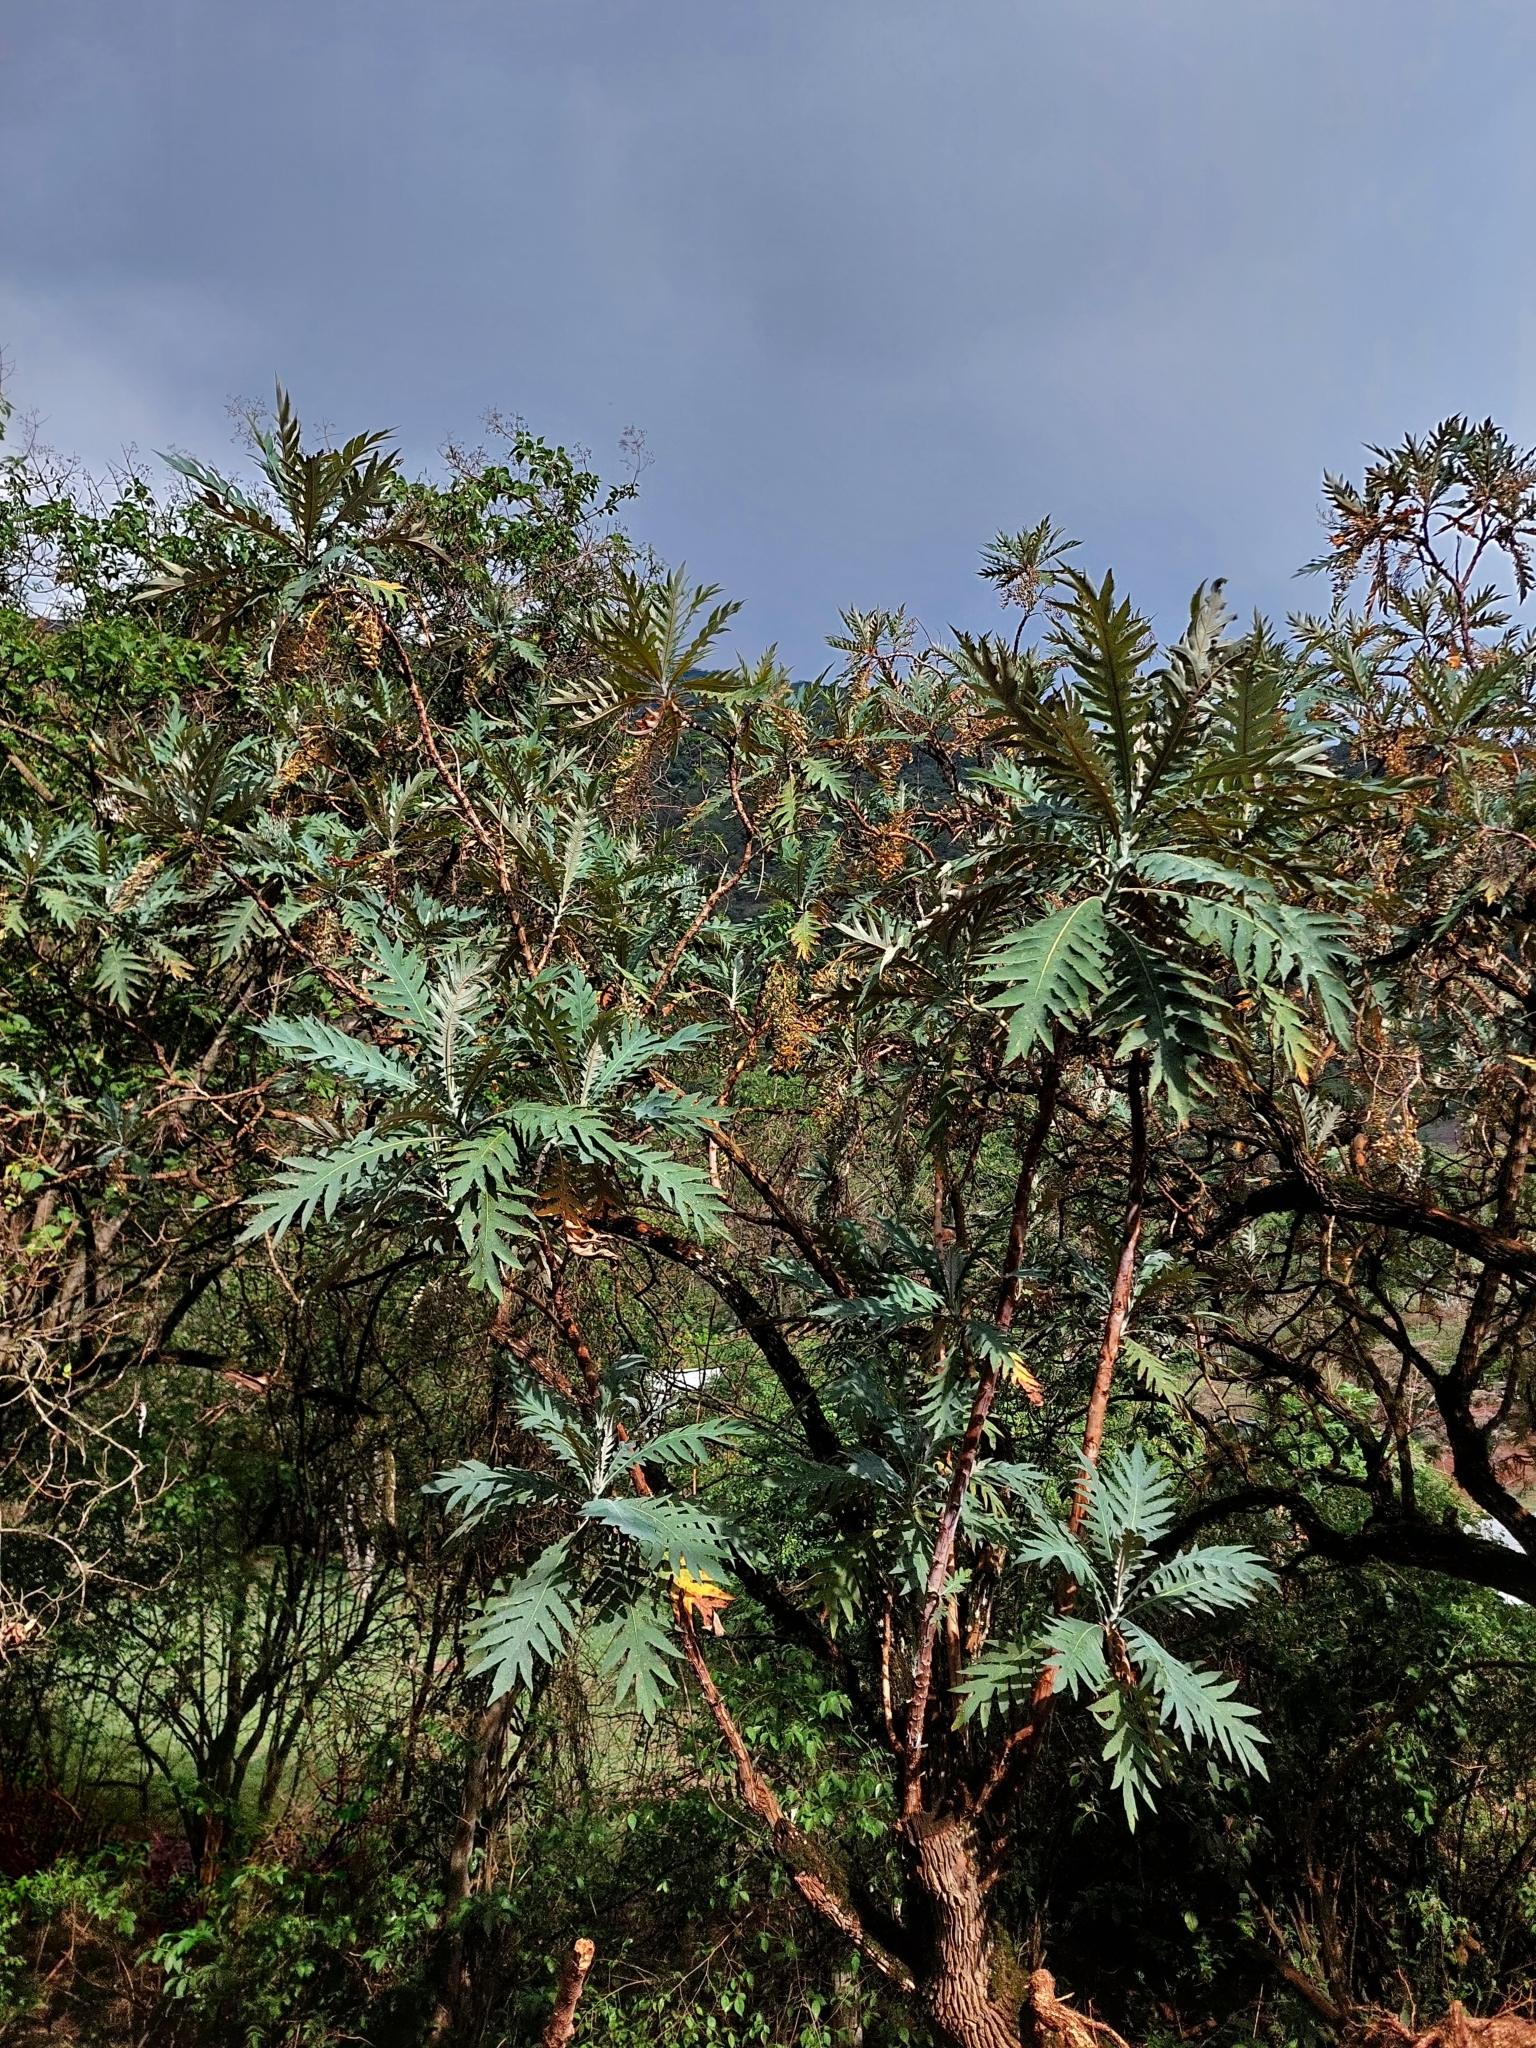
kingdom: Plantae
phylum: Tracheophyta
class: Magnoliopsida
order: Ranunculales
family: Papaveraceae
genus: Bocconia
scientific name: Bocconia frutescens
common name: Tree poppy
